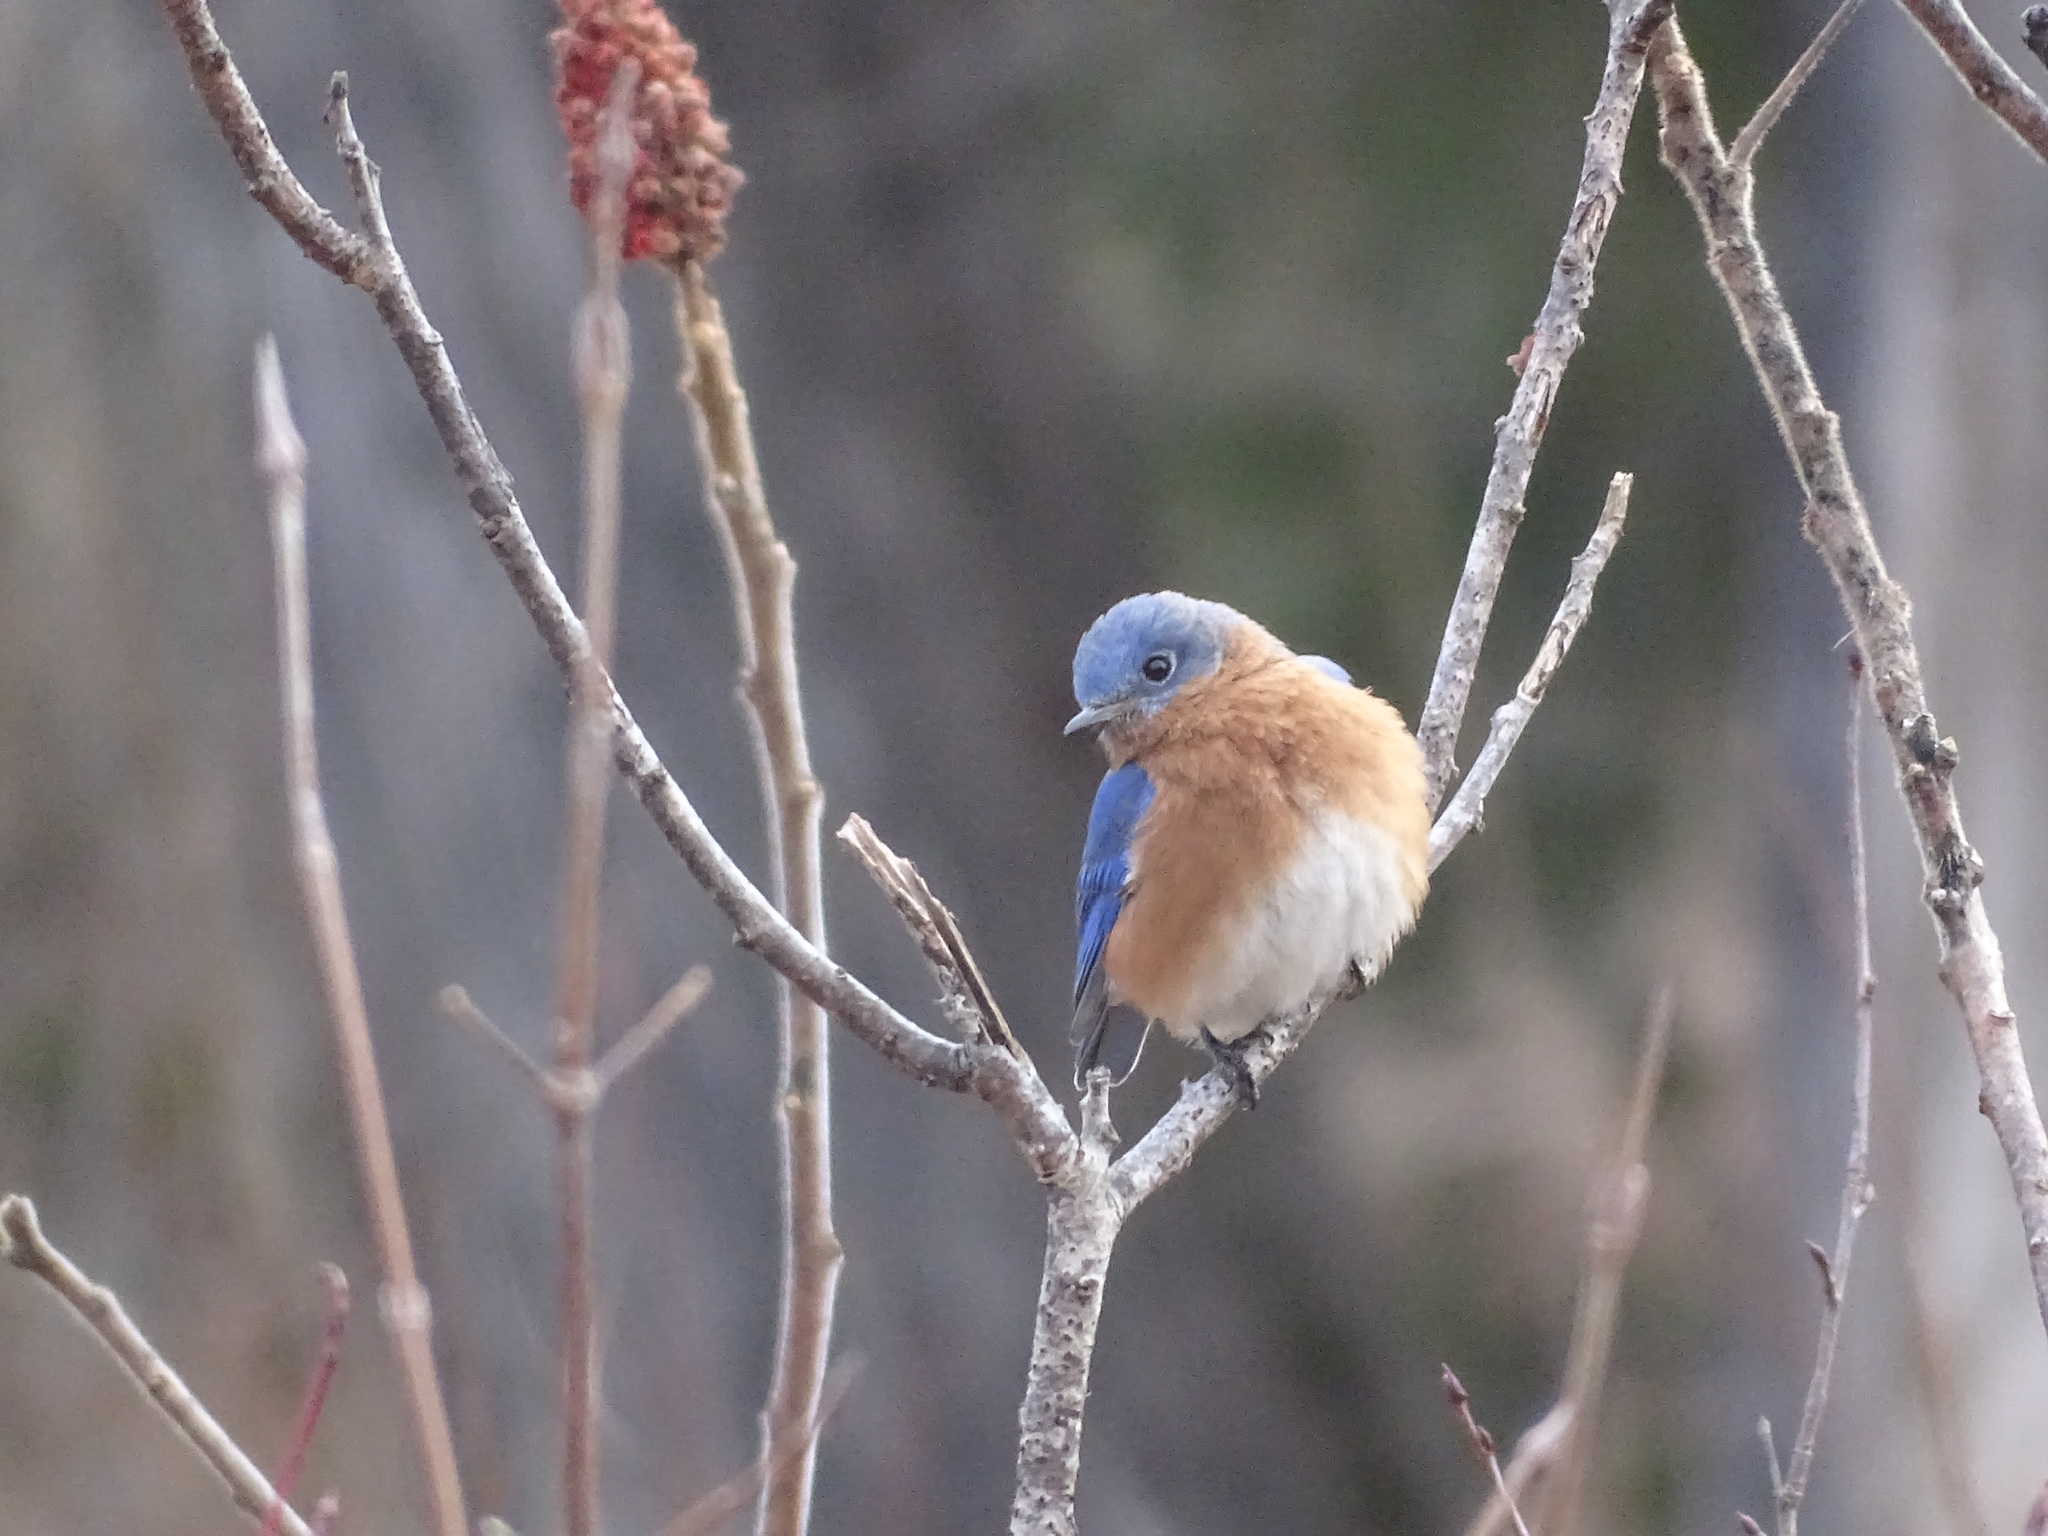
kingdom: Animalia
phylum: Chordata
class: Aves
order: Passeriformes
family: Turdidae
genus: Sialia
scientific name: Sialia sialis
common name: Eastern bluebird
